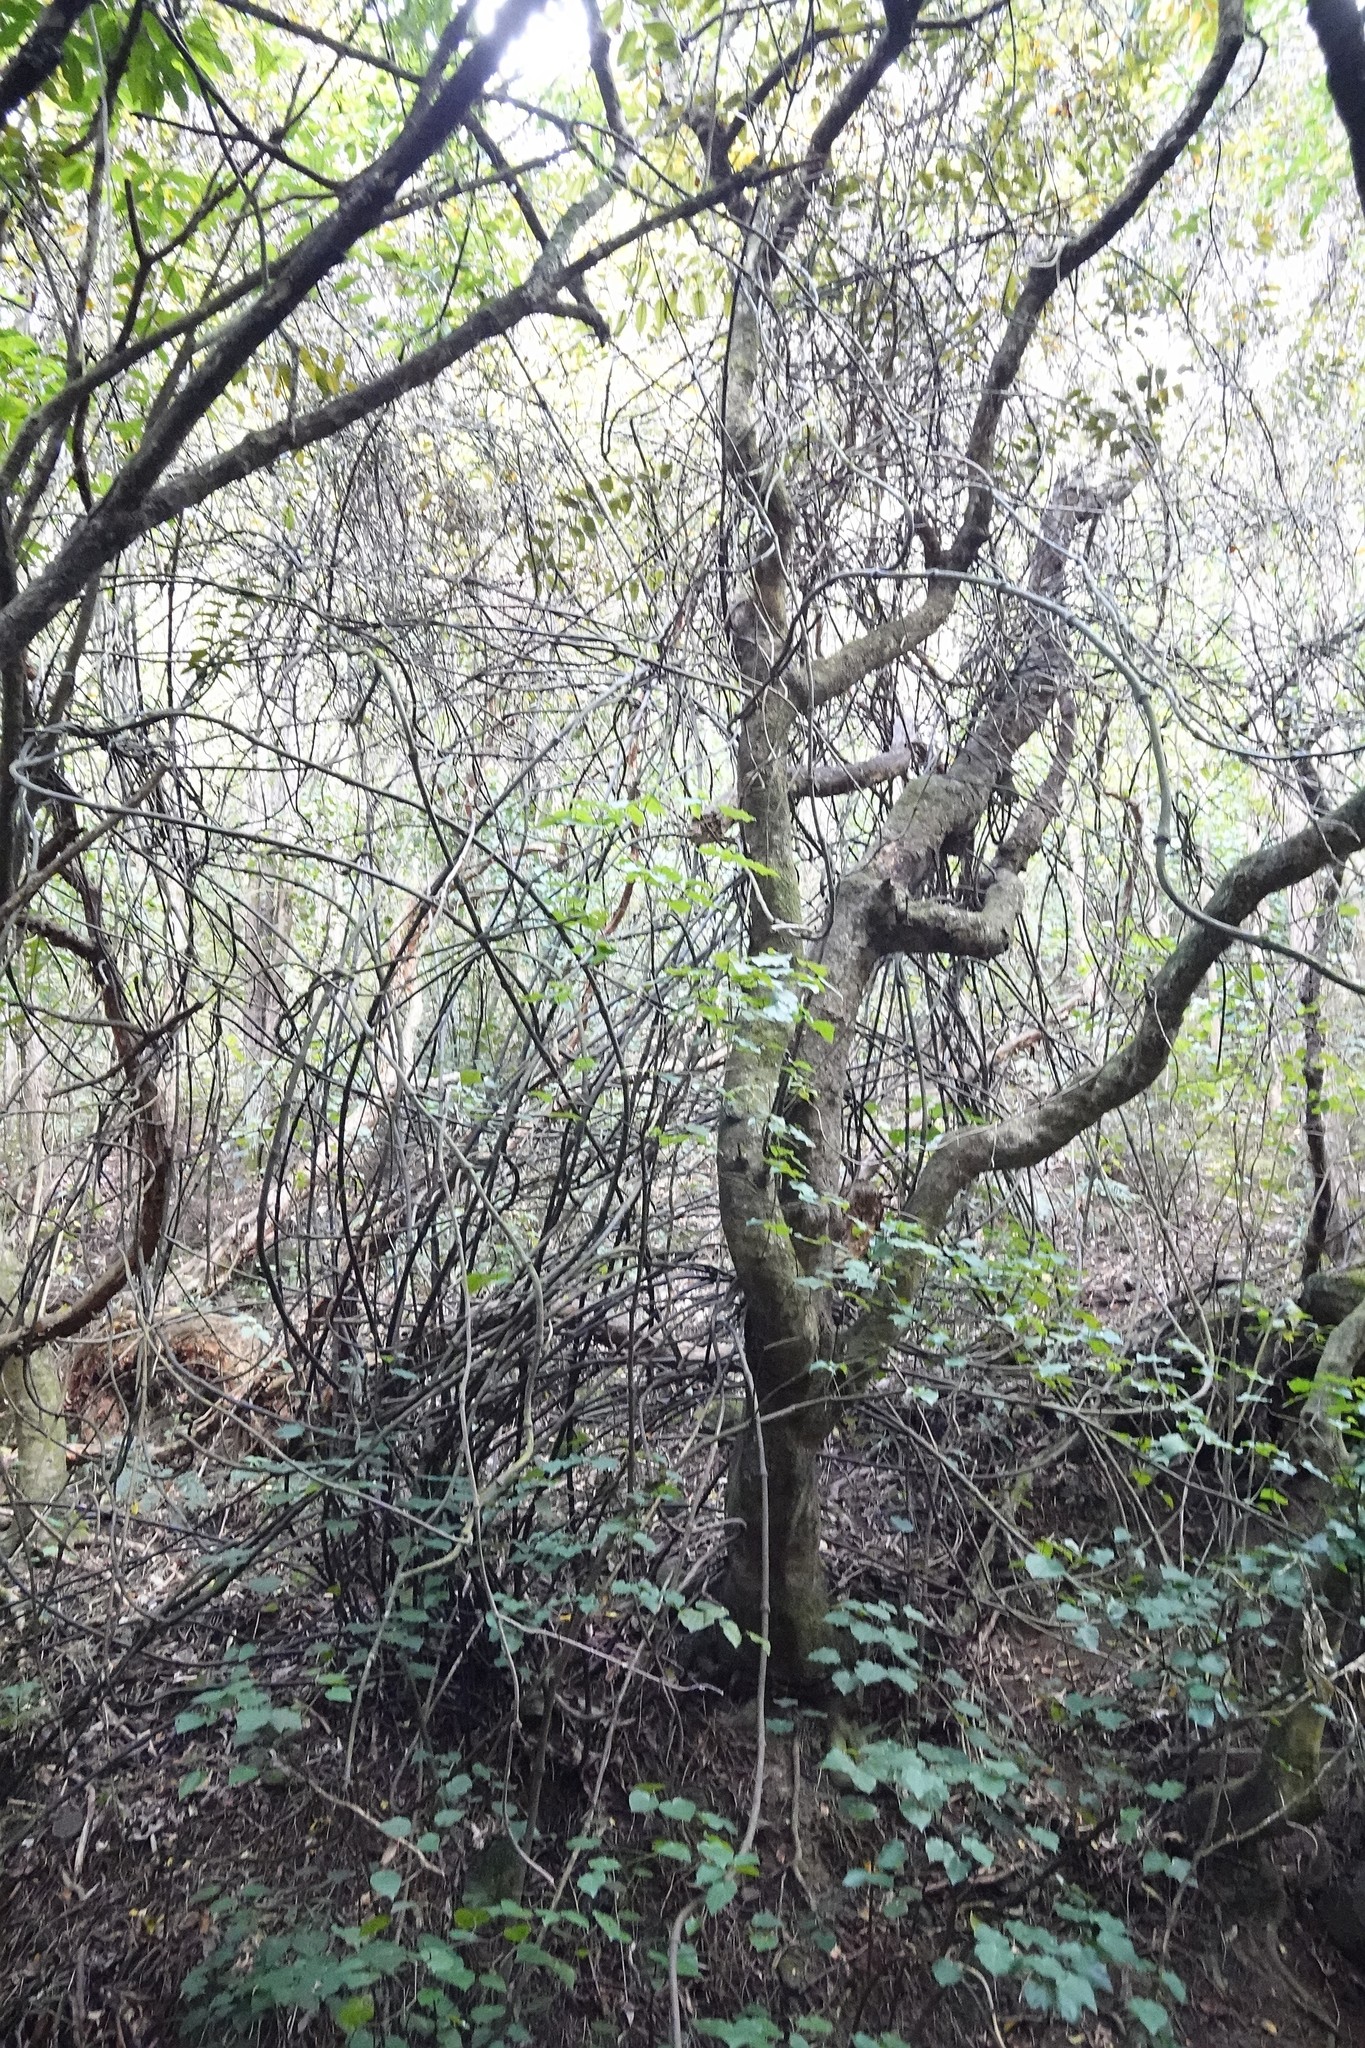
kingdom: Plantae
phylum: Tracheophyta
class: Liliopsida
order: Liliales
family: Ripogonaceae
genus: Ripogonum
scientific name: Ripogonum scandens
